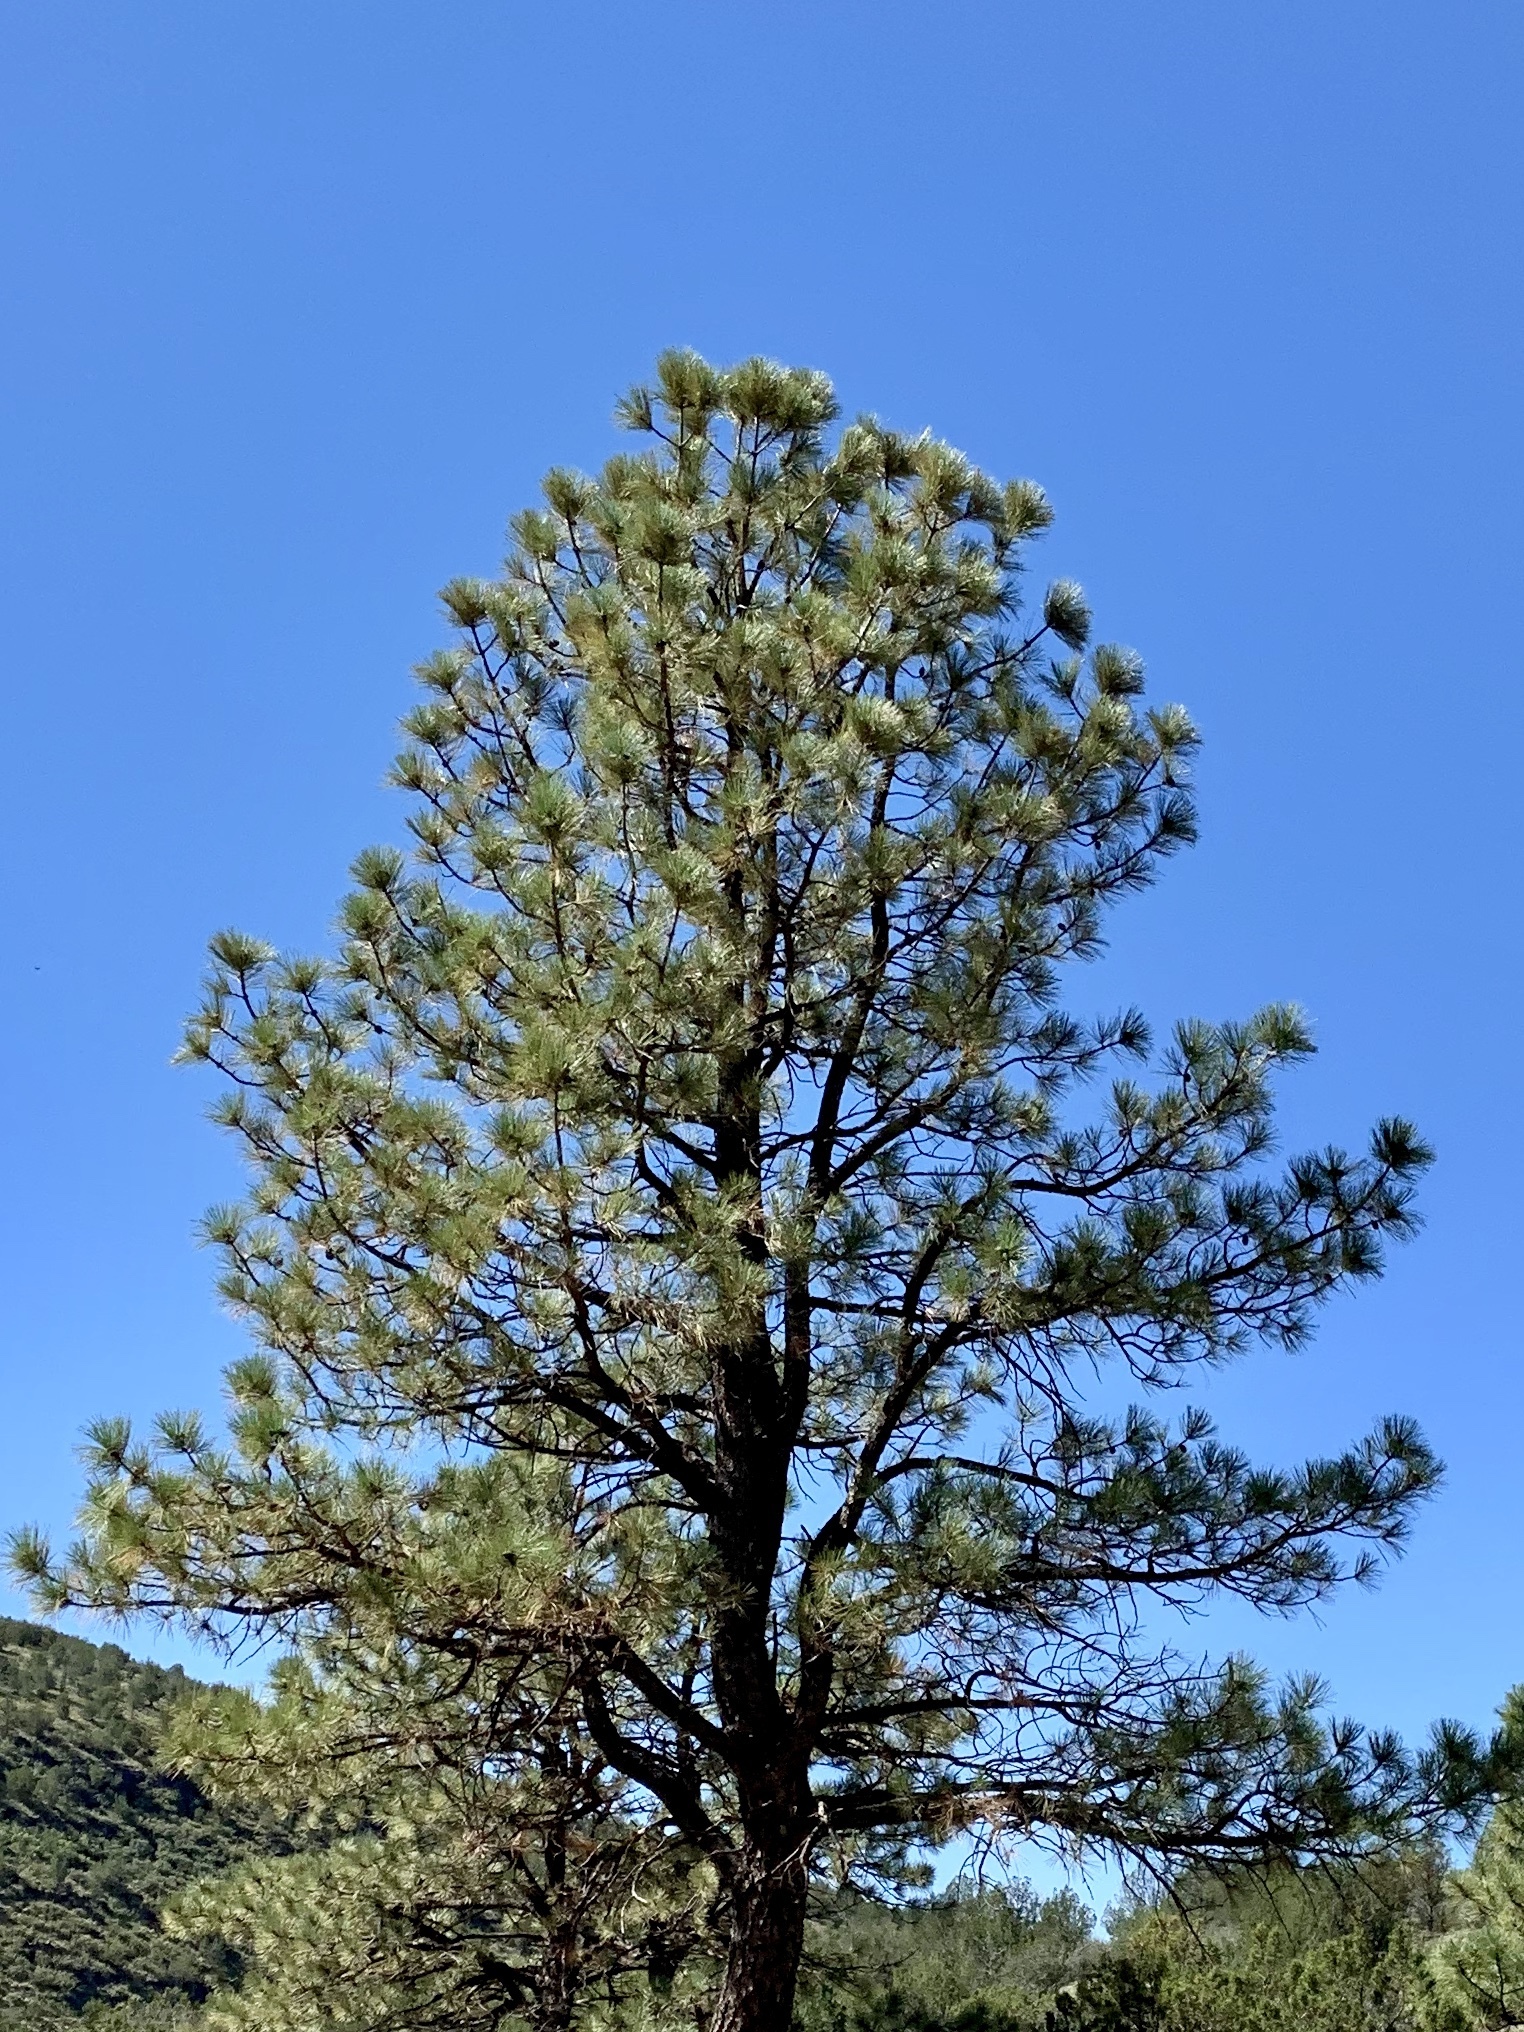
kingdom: Plantae
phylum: Tracheophyta
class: Pinopsida
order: Pinales
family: Pinaceae
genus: Pinus
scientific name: Pinus ponderosa
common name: Western yellow-pine
